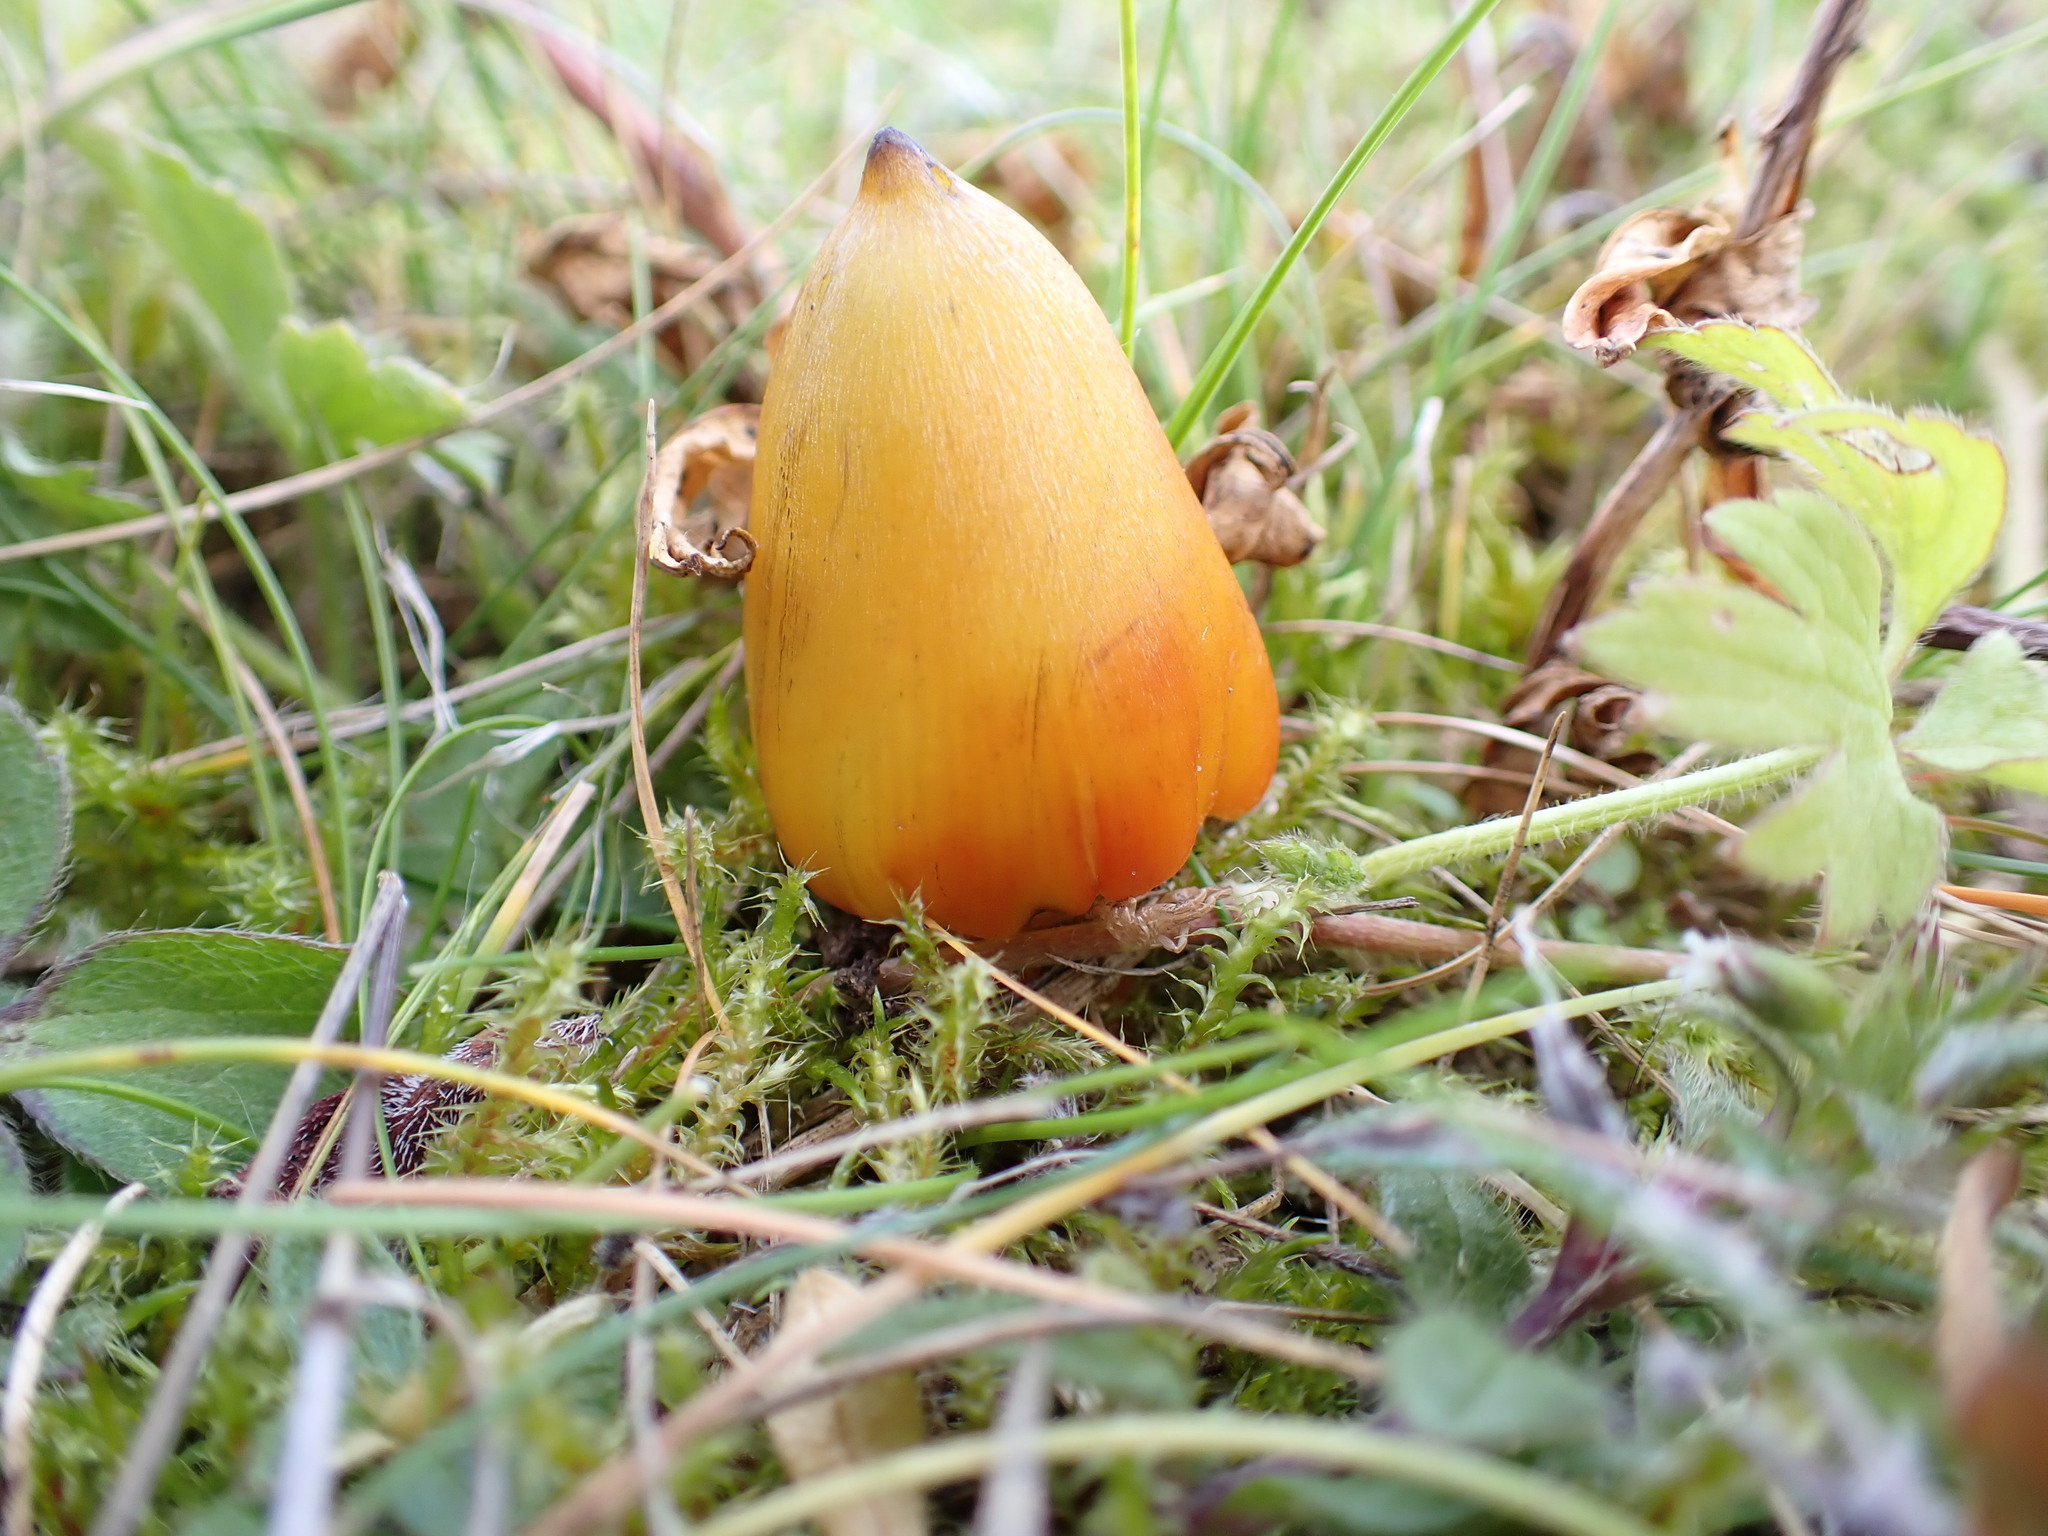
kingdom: Fungi
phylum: Basidiomycota
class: Agaricomycetes
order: Agaricales
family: Hygrophoraceae
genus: Hygrocybe
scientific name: Hygrocybe conica
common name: Blackening wax-cap
